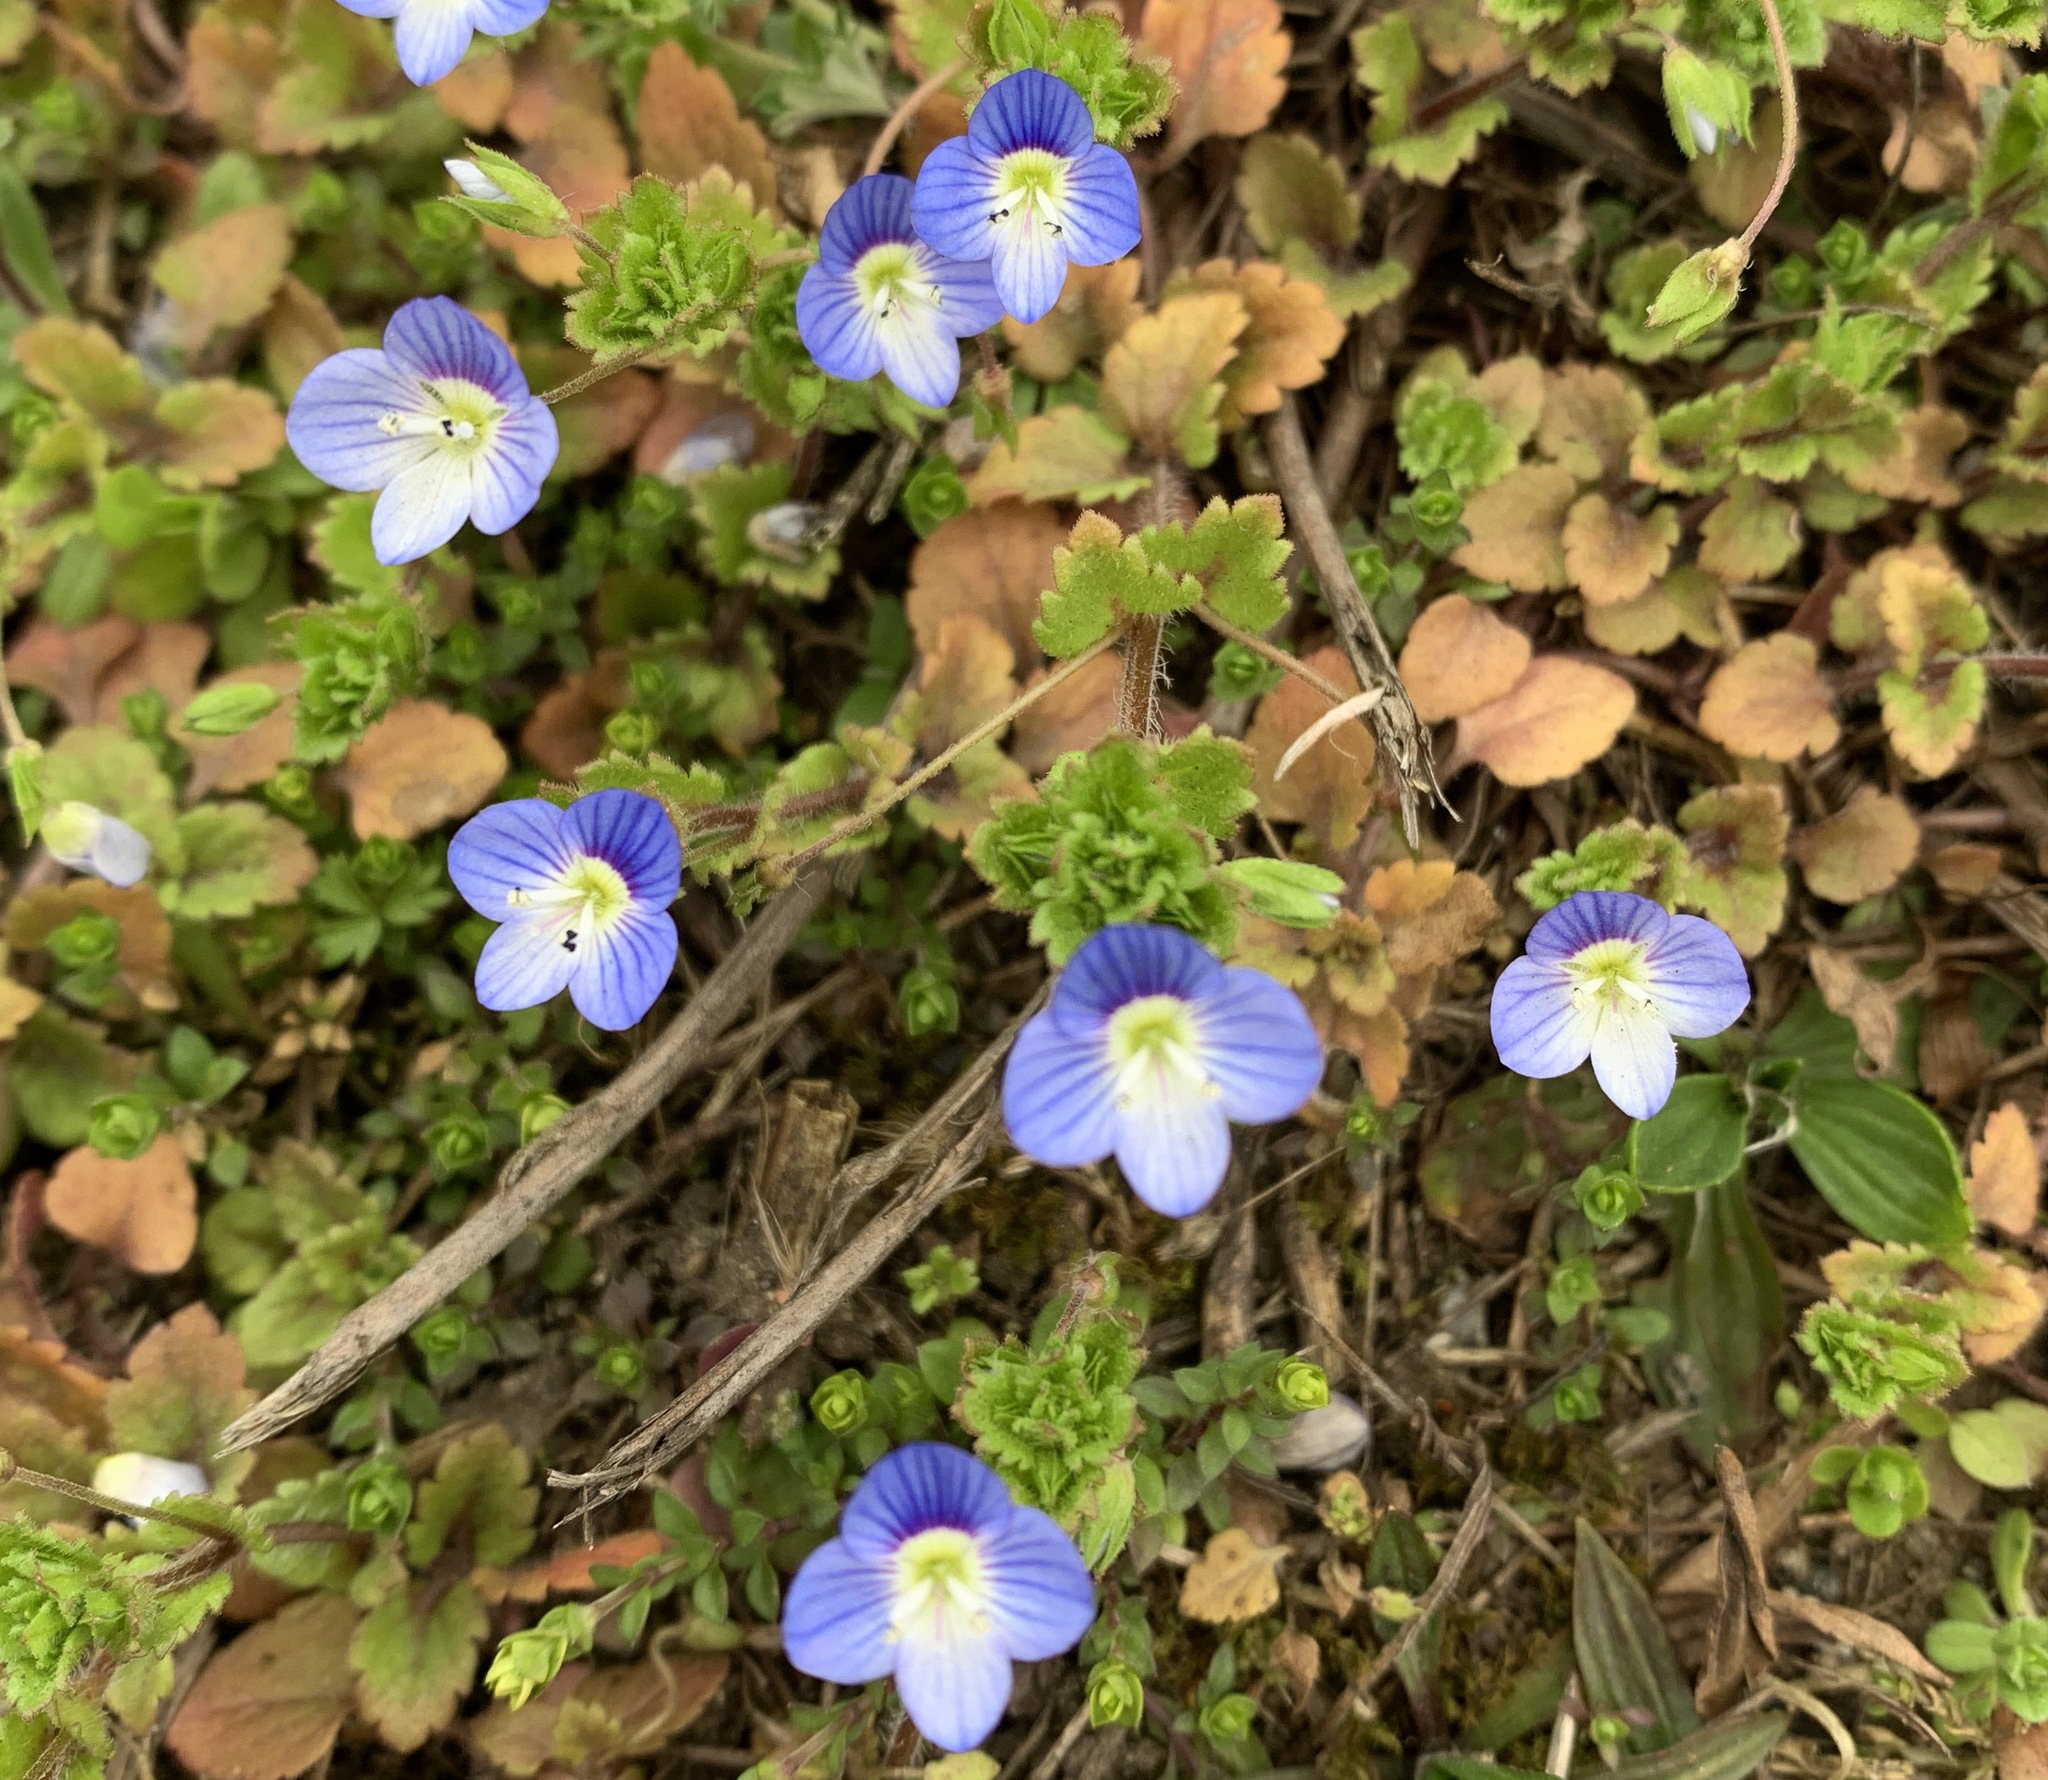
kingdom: Plantae
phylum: Tracheophyta
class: Magnoliopsida
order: Lamiales
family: Plantaginaceae
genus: Veronica
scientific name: Veronica persica
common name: Common field-speedwell
